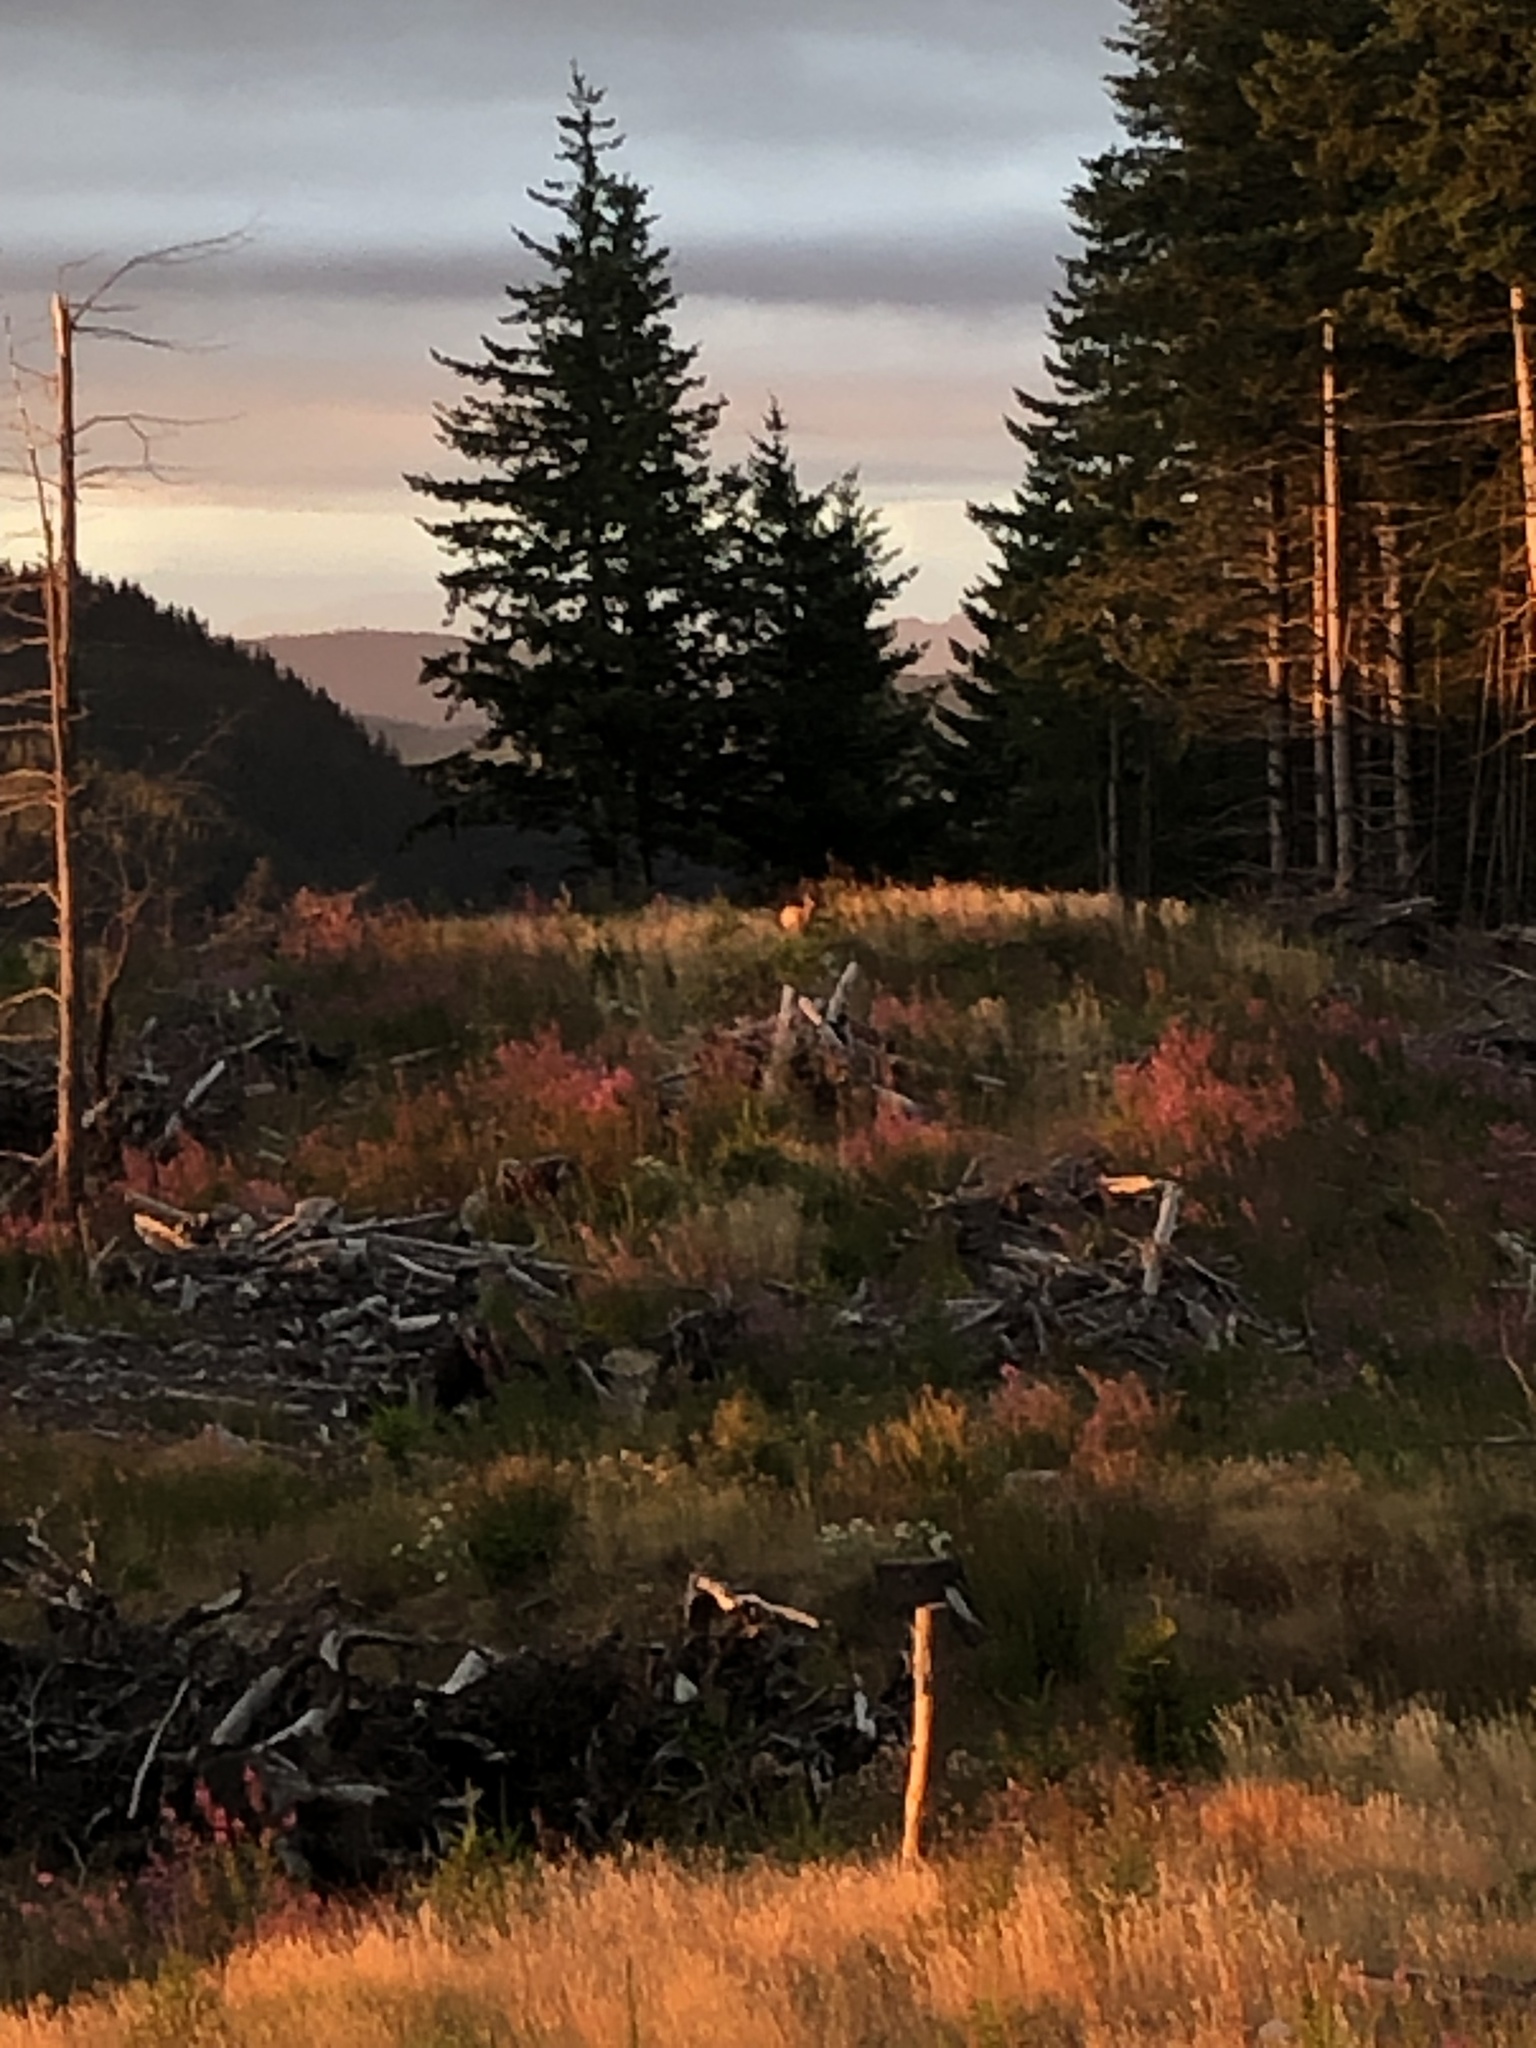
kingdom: Animalia
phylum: Chordata
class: Mammalia
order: Artiodactyla
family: Cervidae
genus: Odocoileus
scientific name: Odocoileus hemionus
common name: Mule deer
